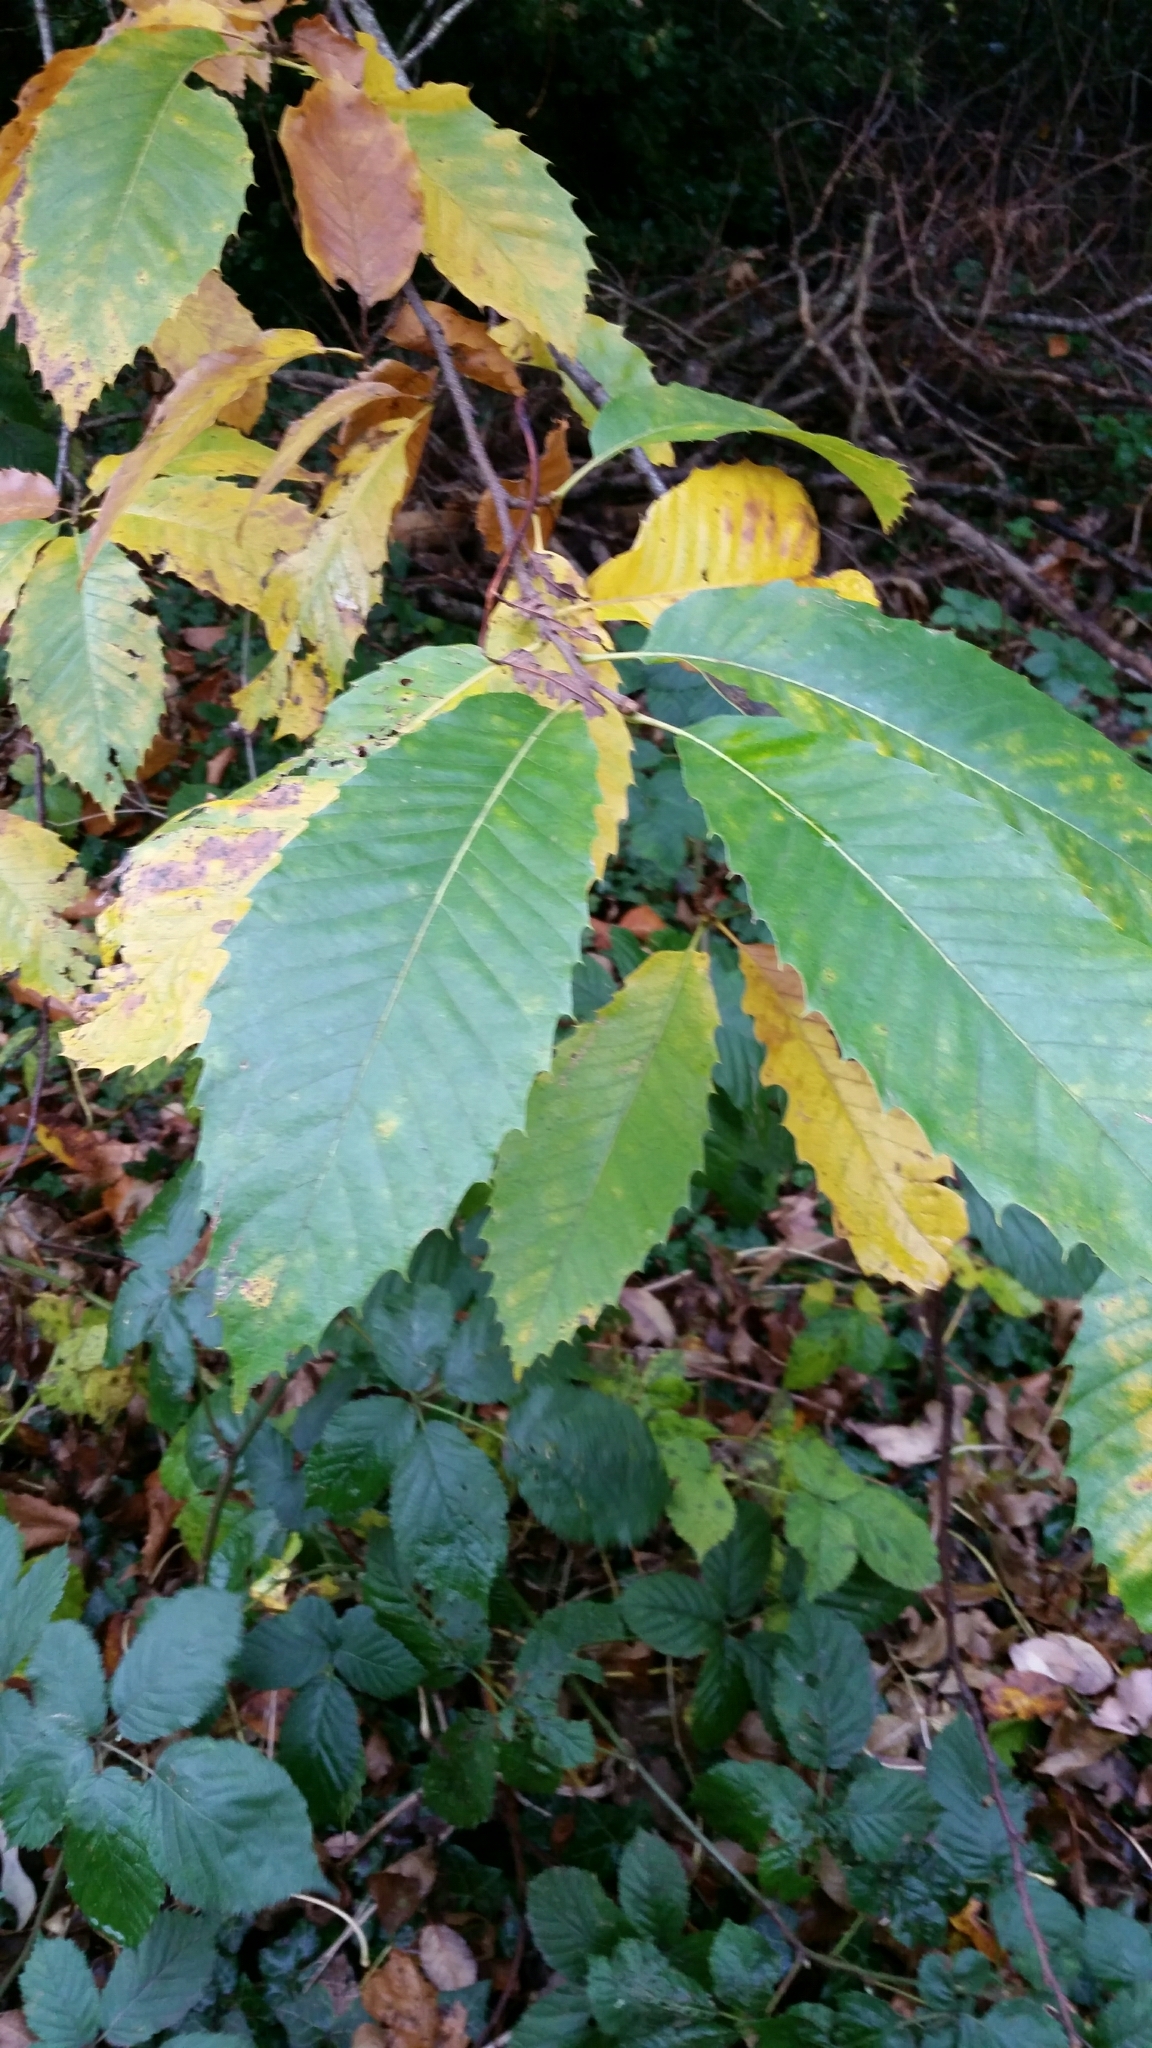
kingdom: Plantae
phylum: Tracheophyta
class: Magnoliopsida
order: Fagales
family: Fagaceae
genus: Castanea
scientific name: Castanea sativa
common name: Sweet chestnut
